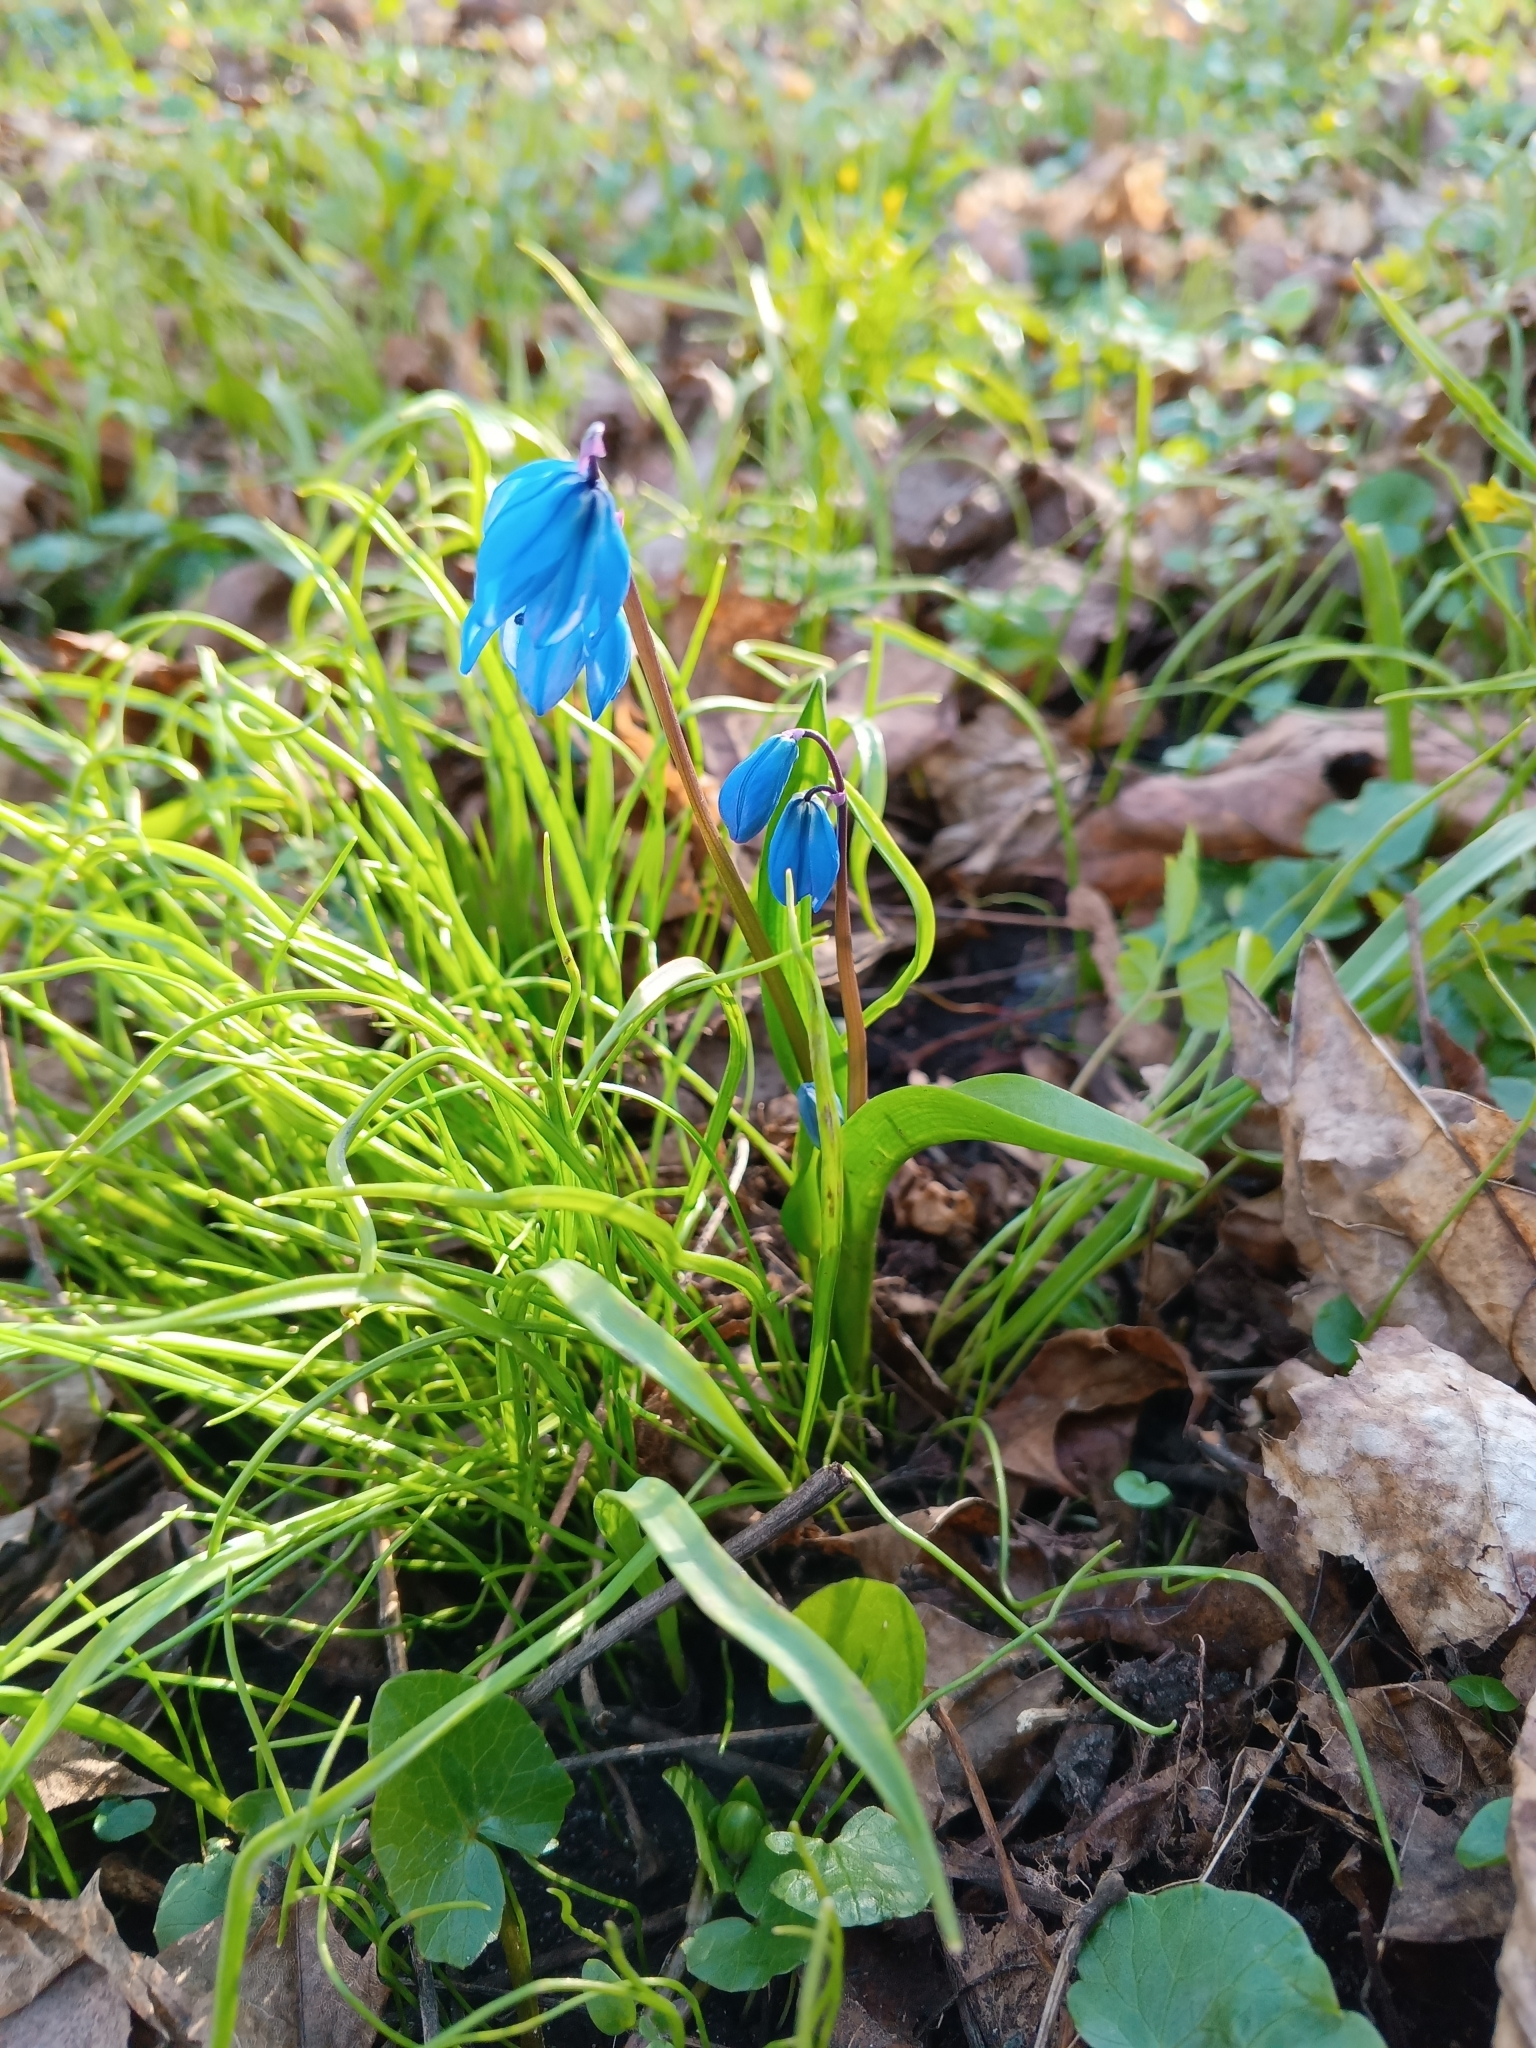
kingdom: Plantae
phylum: Tracheophyta
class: Liliopsida
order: Asparagales
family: Asparagaceae
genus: Scilla
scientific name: Scilla siberica
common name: Siberian squill
